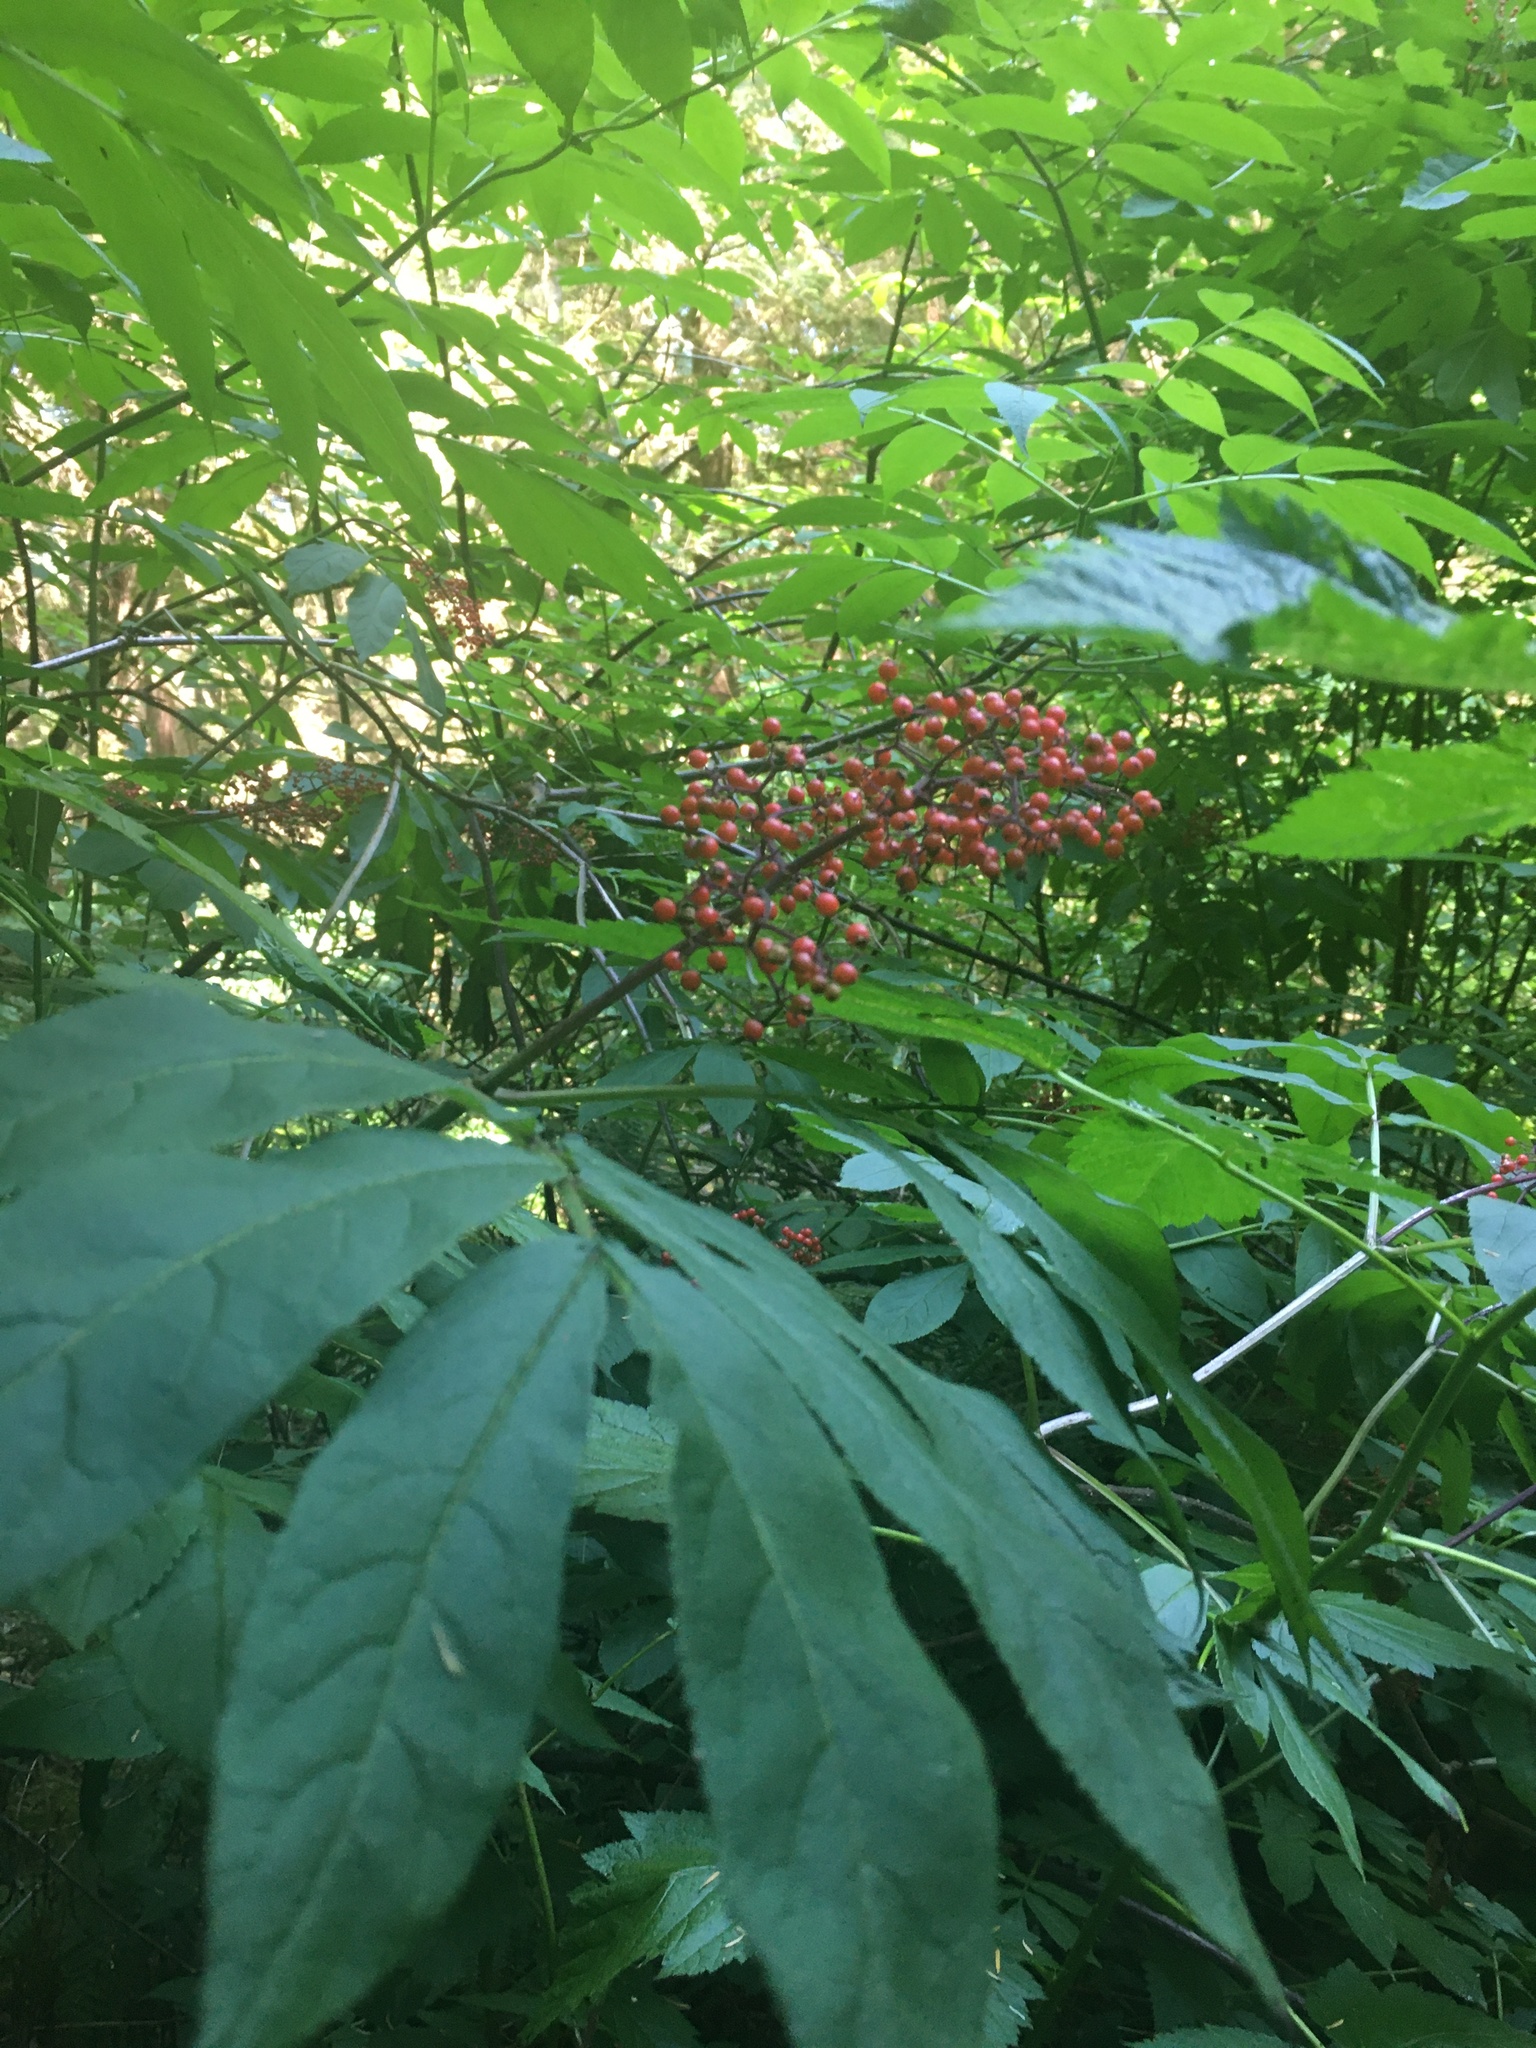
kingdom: Plantae
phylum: Tracheophyta
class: Magnoliopsida
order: Dipsacales
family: Viburnaceae
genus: Sambucus
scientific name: Sambucus racemosa
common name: Red-berried elder
